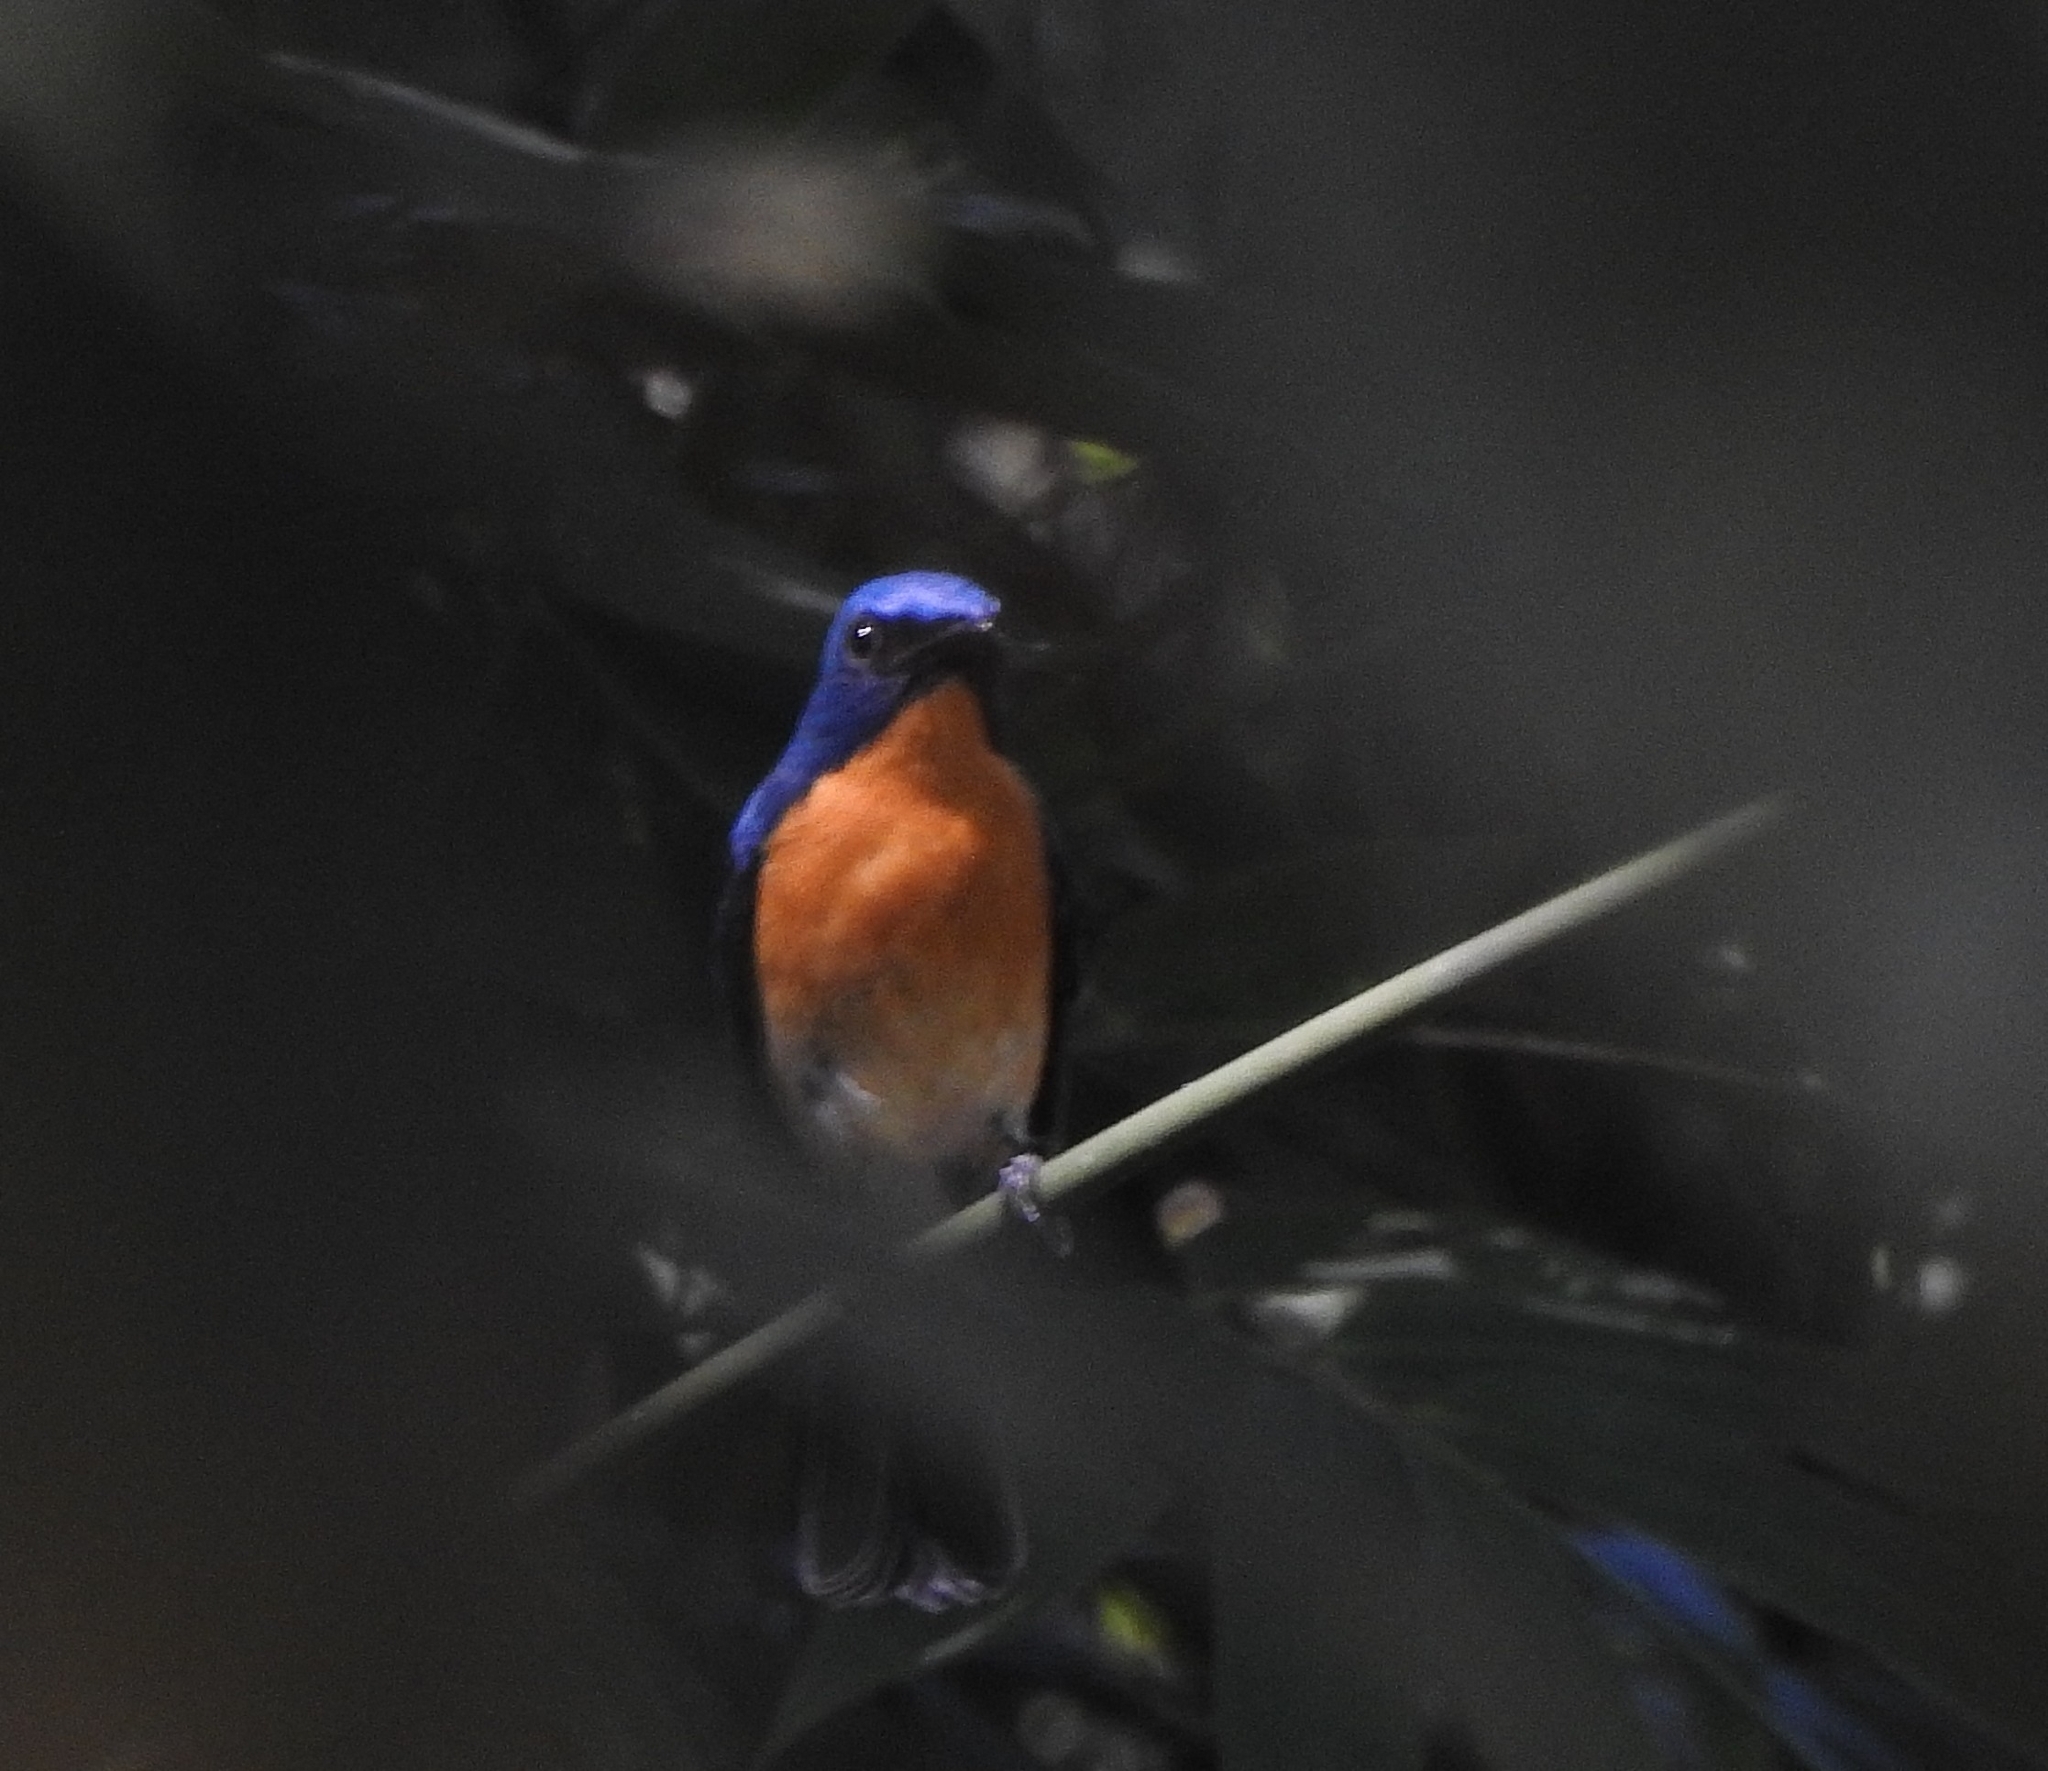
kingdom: Animalia
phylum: Chordata
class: Aves
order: Passeriformes
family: Muscicapidae
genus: Cyornis
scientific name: Cyornis tickelliae
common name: Tickell's blue flycatcher
